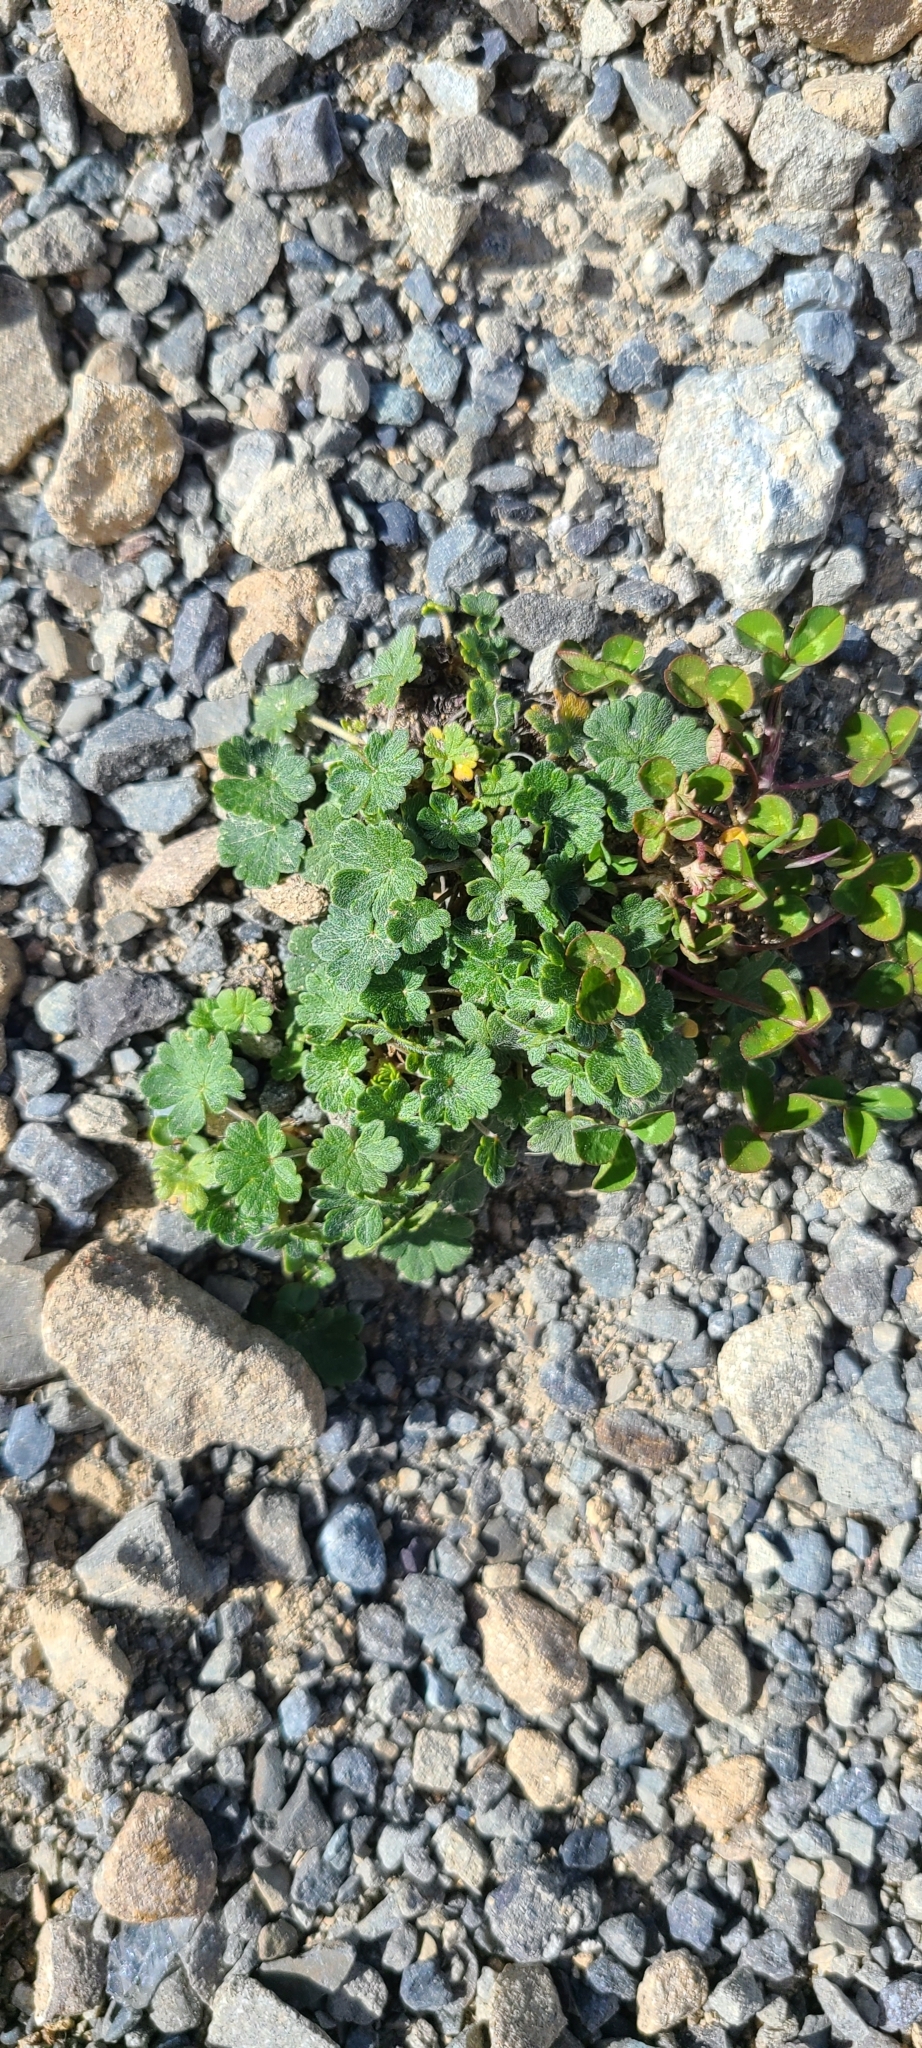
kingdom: Plantae
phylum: Tracheophyta
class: Magnoliopsida
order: Geraniales
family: Geraniaceae
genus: Geranium
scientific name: Geranium brevicaule
